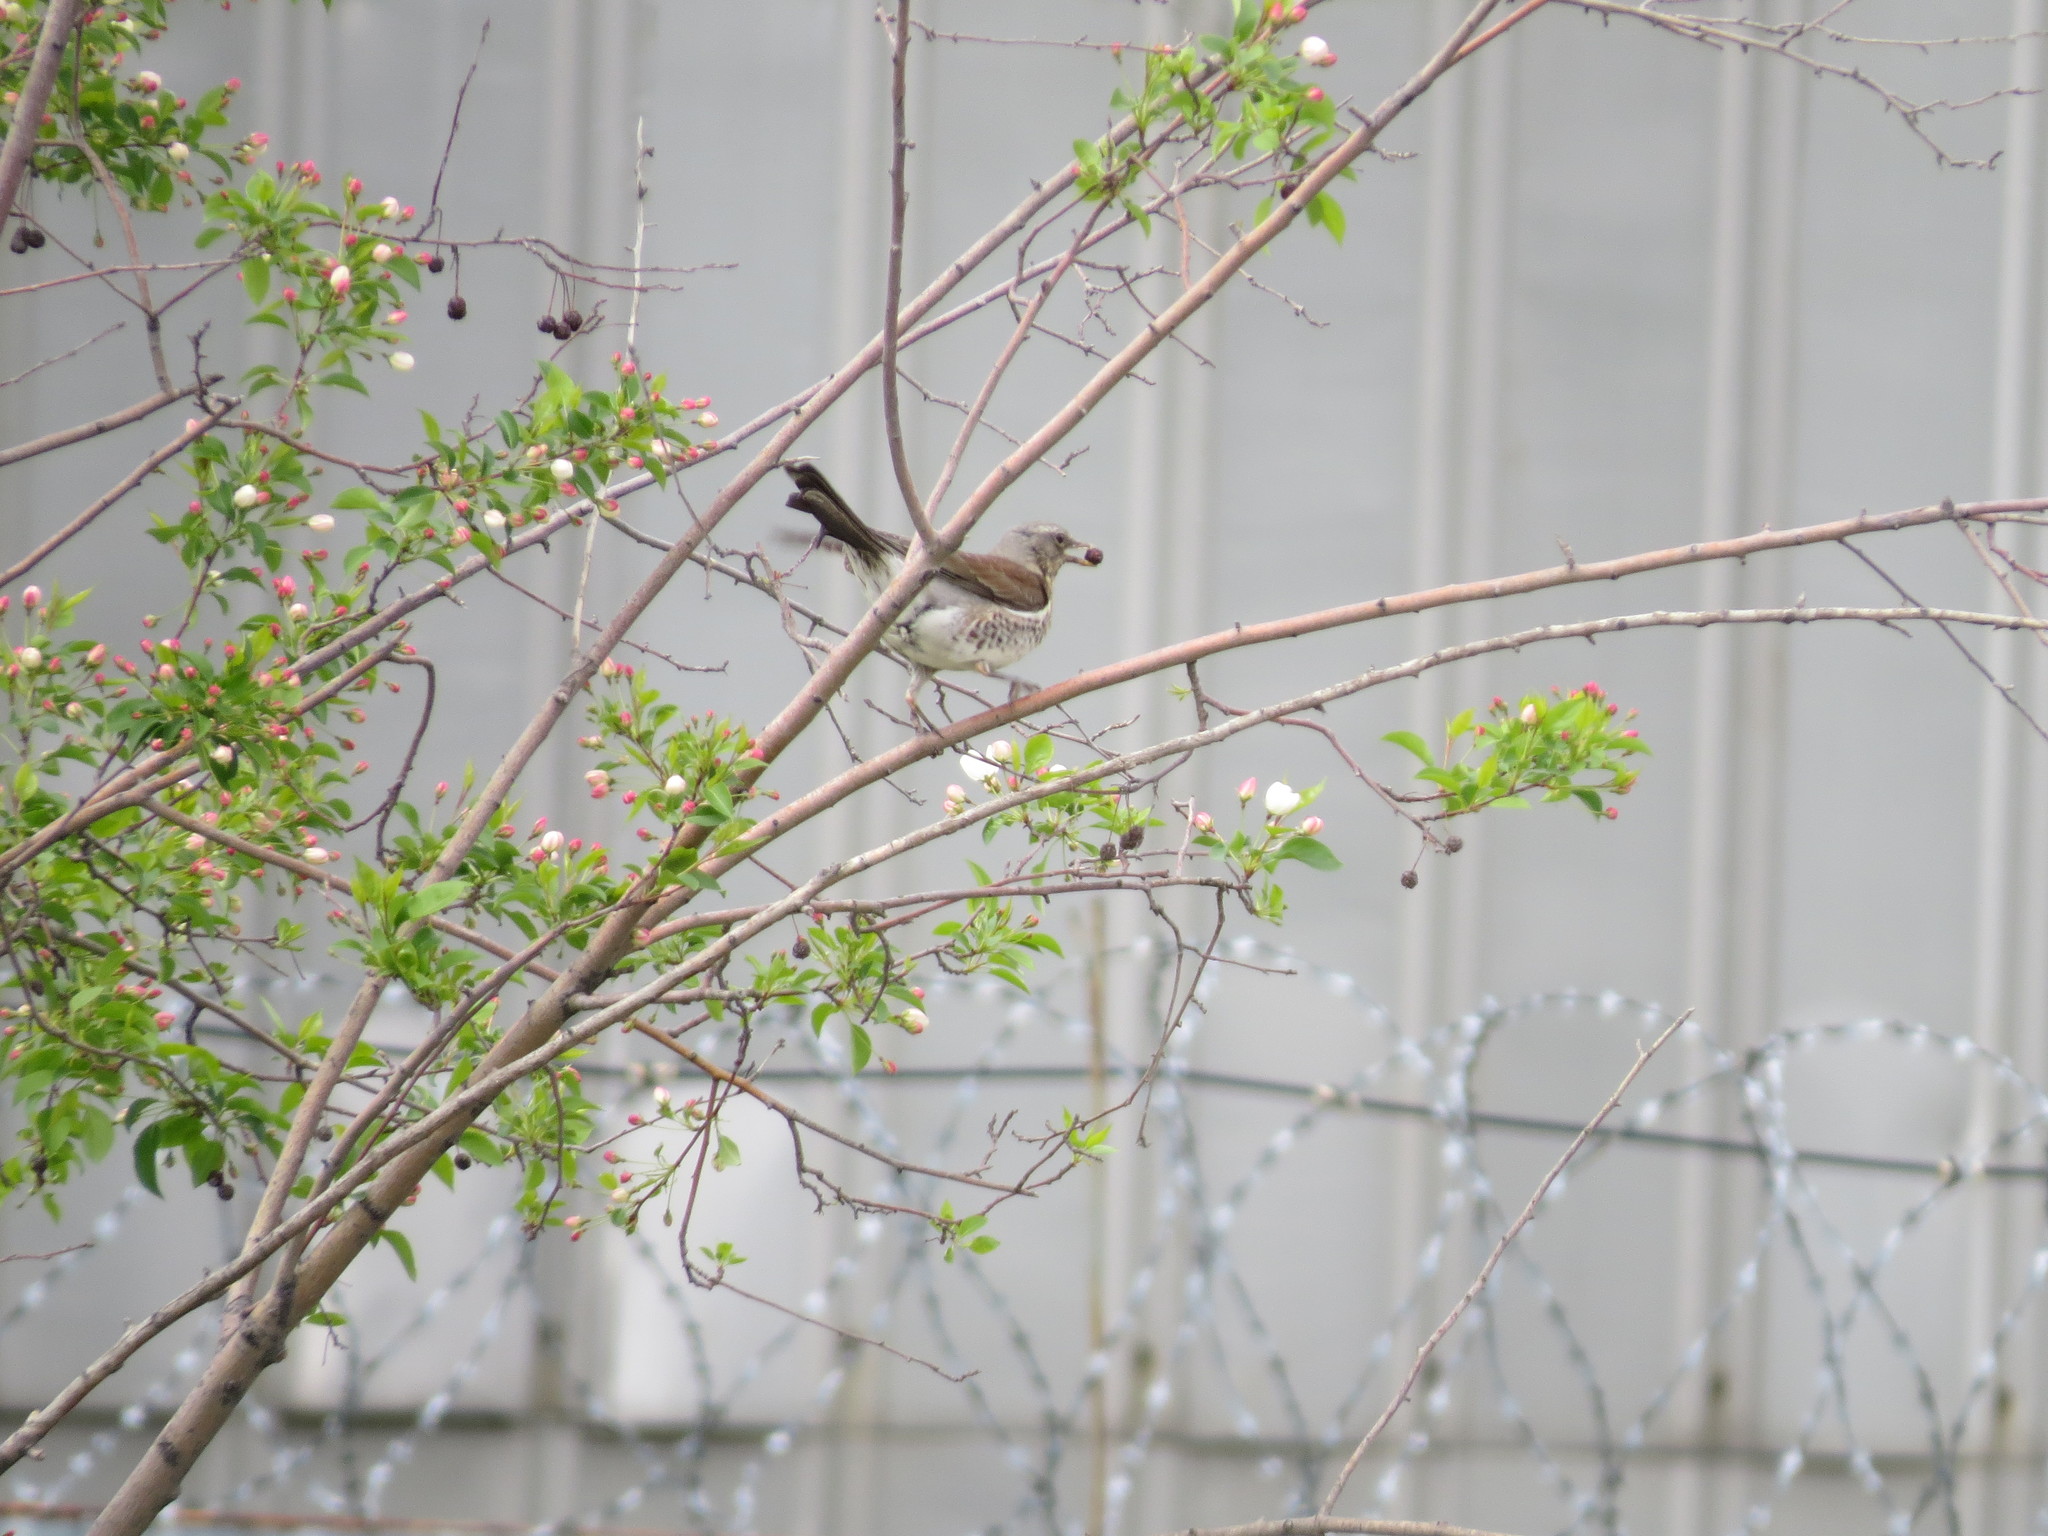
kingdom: Animalia
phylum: Chordata
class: Aves
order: Passeriformes
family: Turdidae
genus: Turdus
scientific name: Turdus pilaris
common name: Fieldfare
